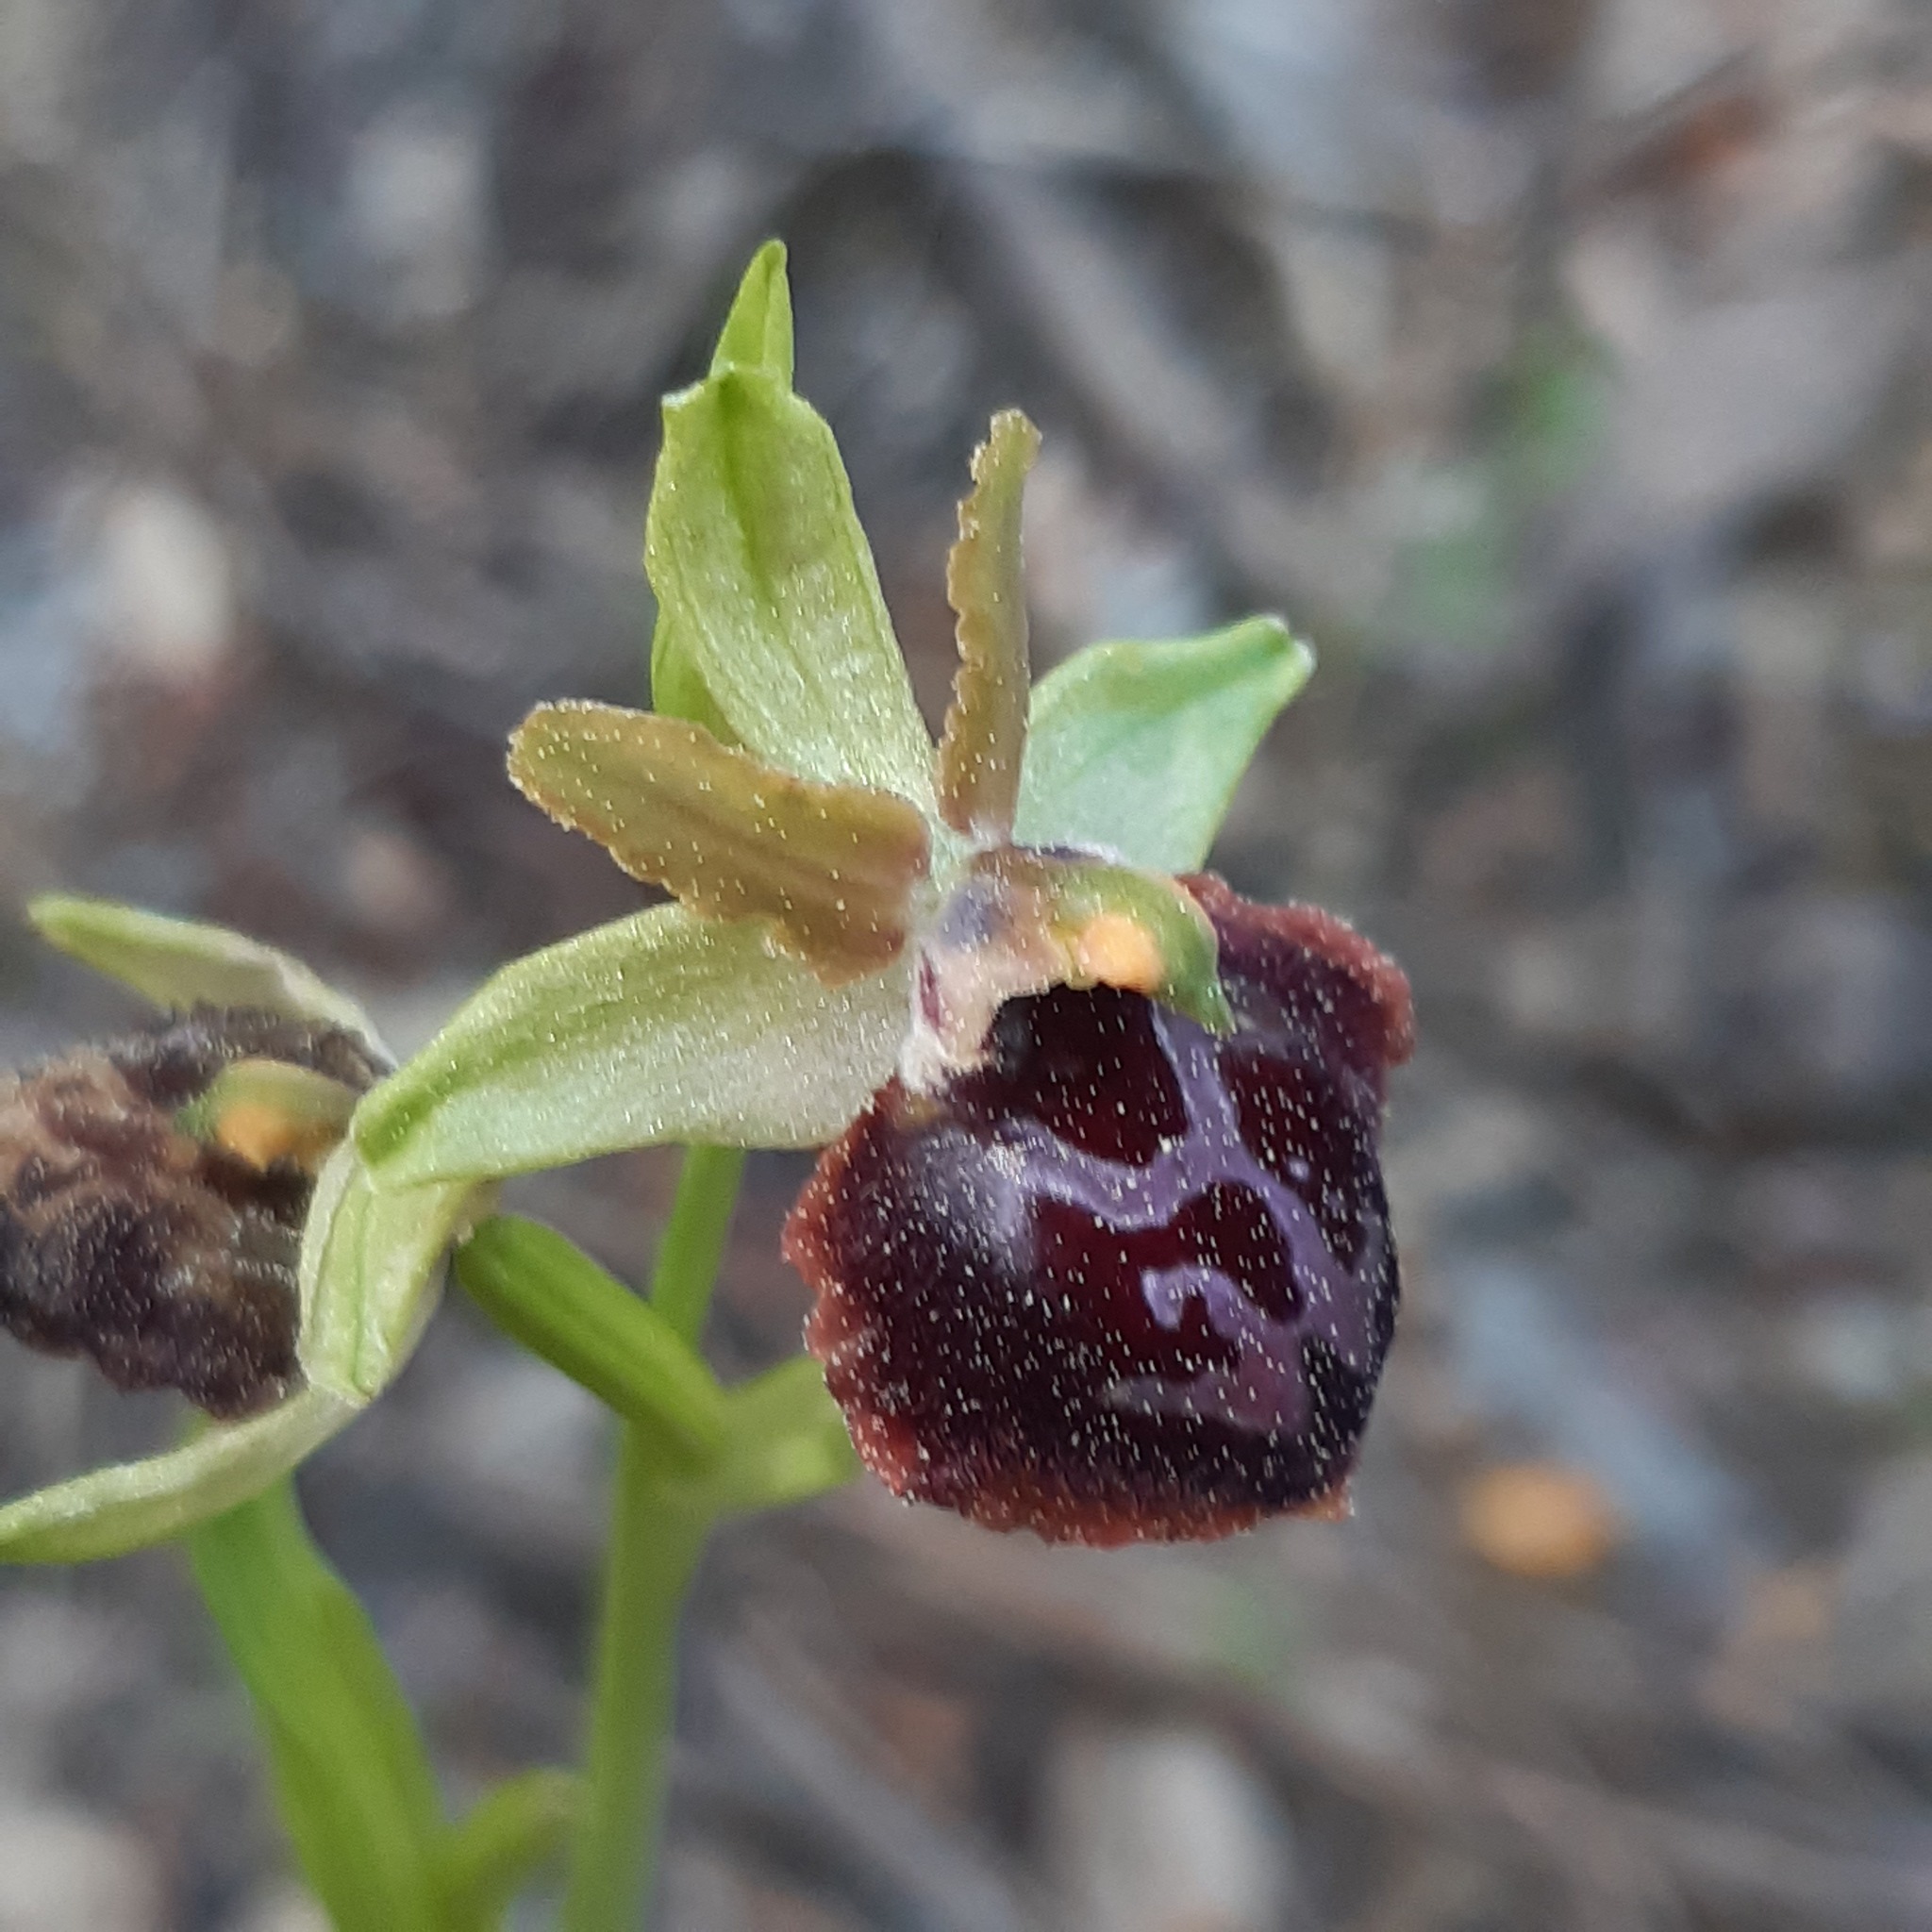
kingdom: Plantae
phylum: Tracheophyta
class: Liliopsida
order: Asparagales
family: Orchidaceae
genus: Ophrys
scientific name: Ophrys sphegodes
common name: Early spider-orchid
